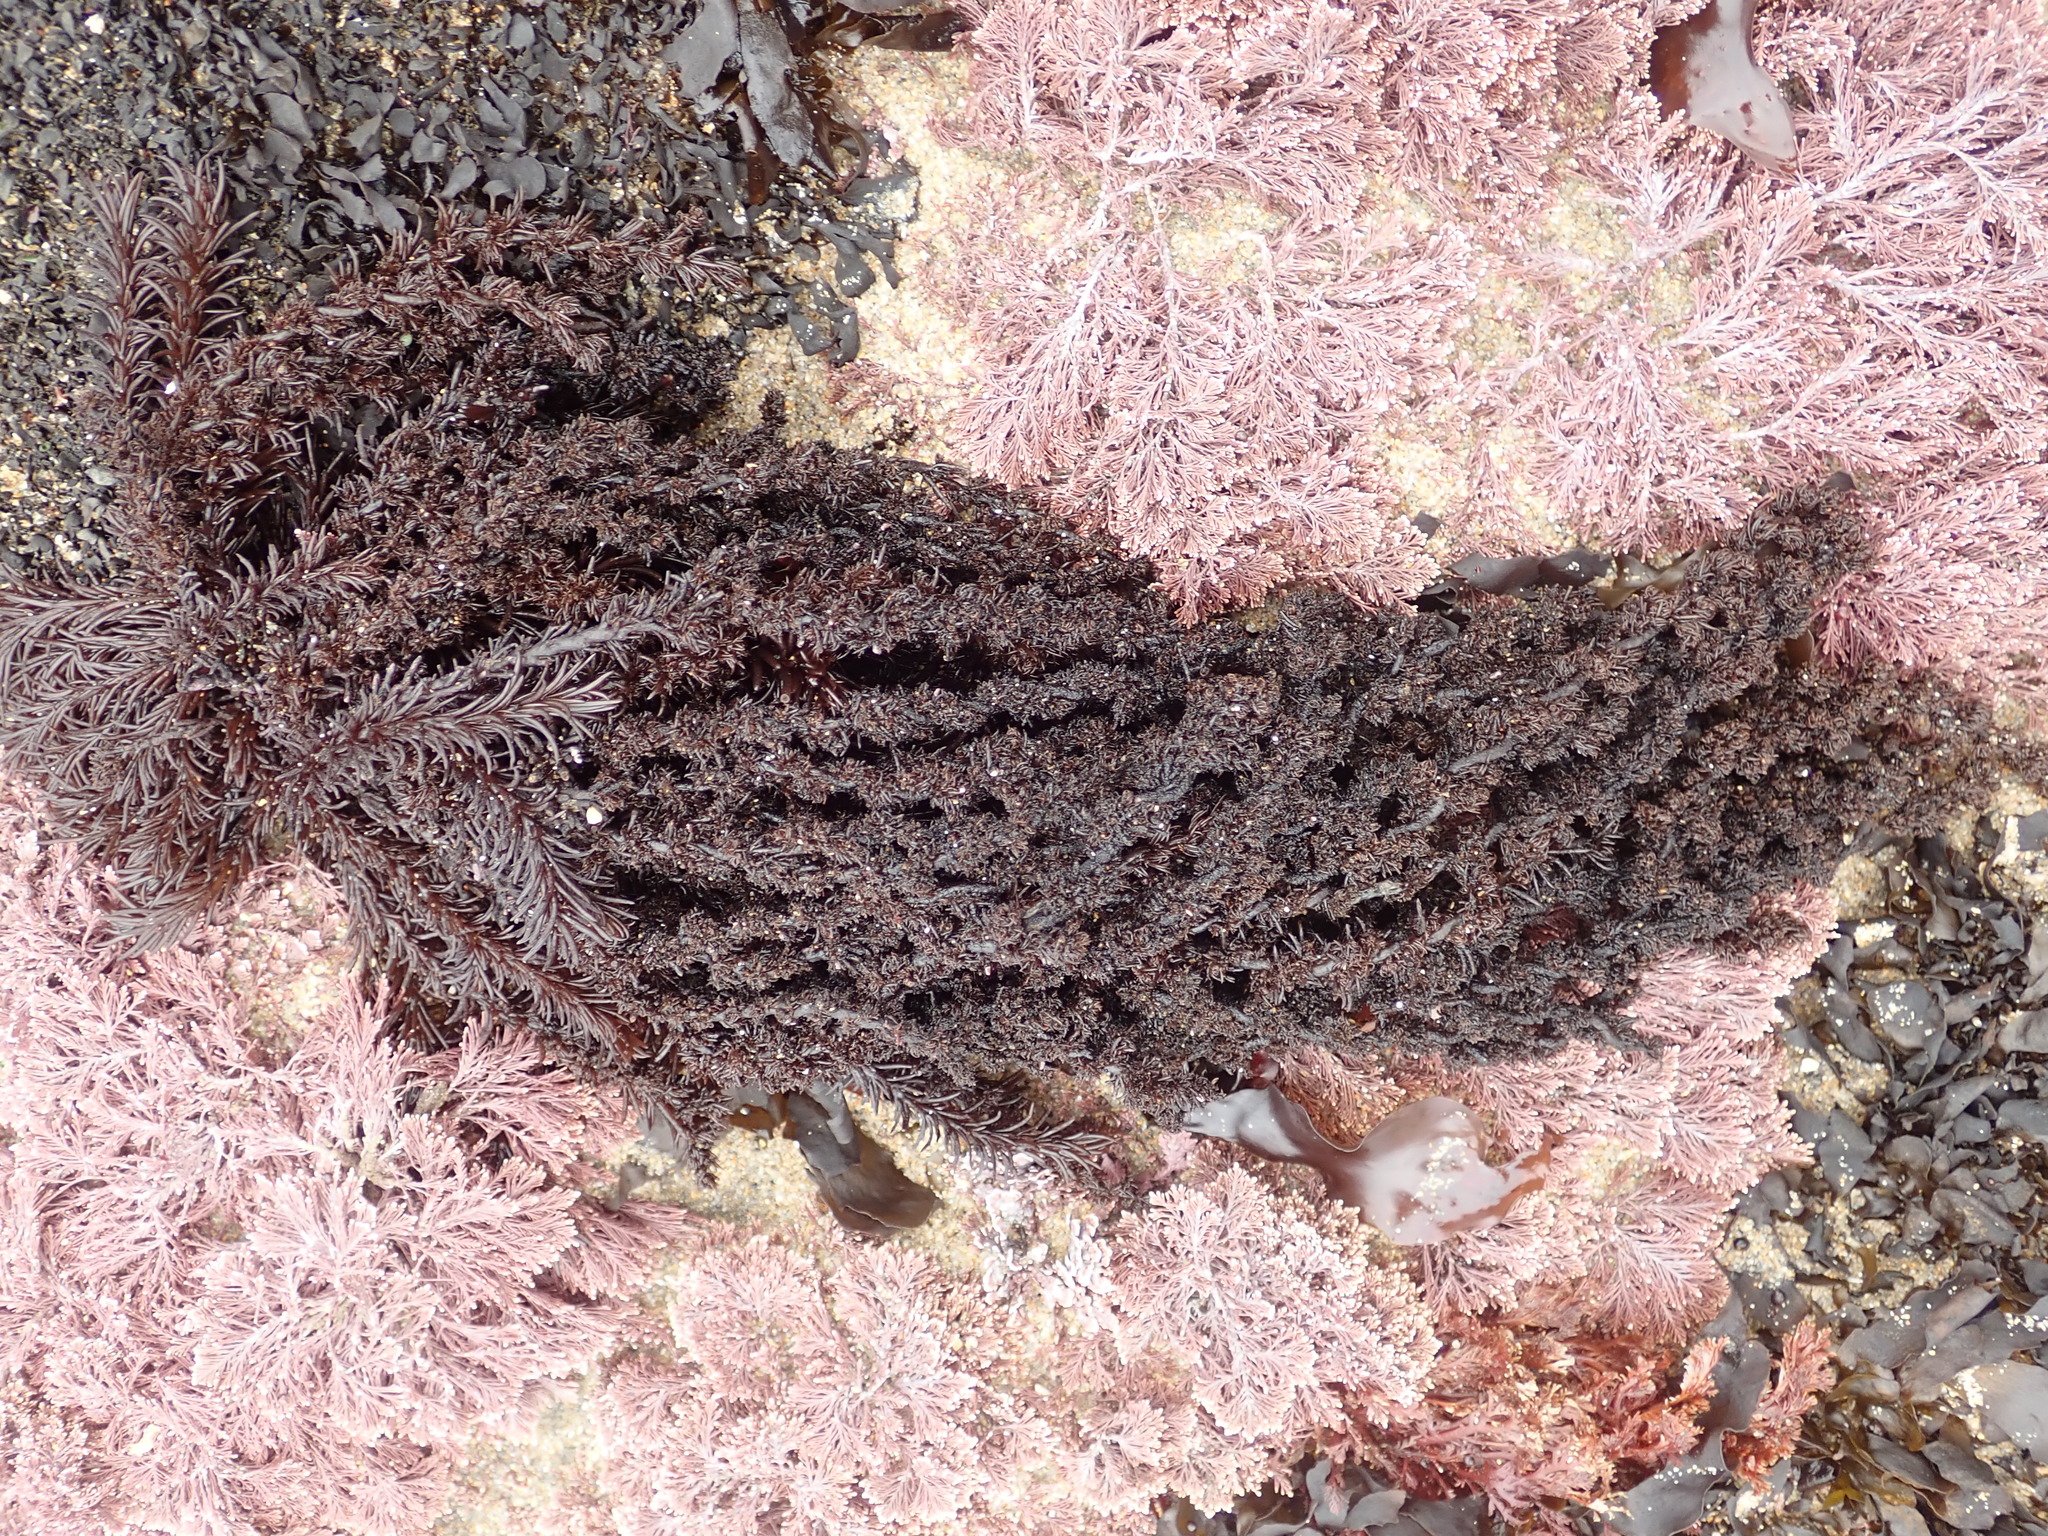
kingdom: Plantae
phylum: Rhodophyta
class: Florideophyceae
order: Ceramiales
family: Rhodomelaceae
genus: Neorhodomela
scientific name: Neorhodomela larix
